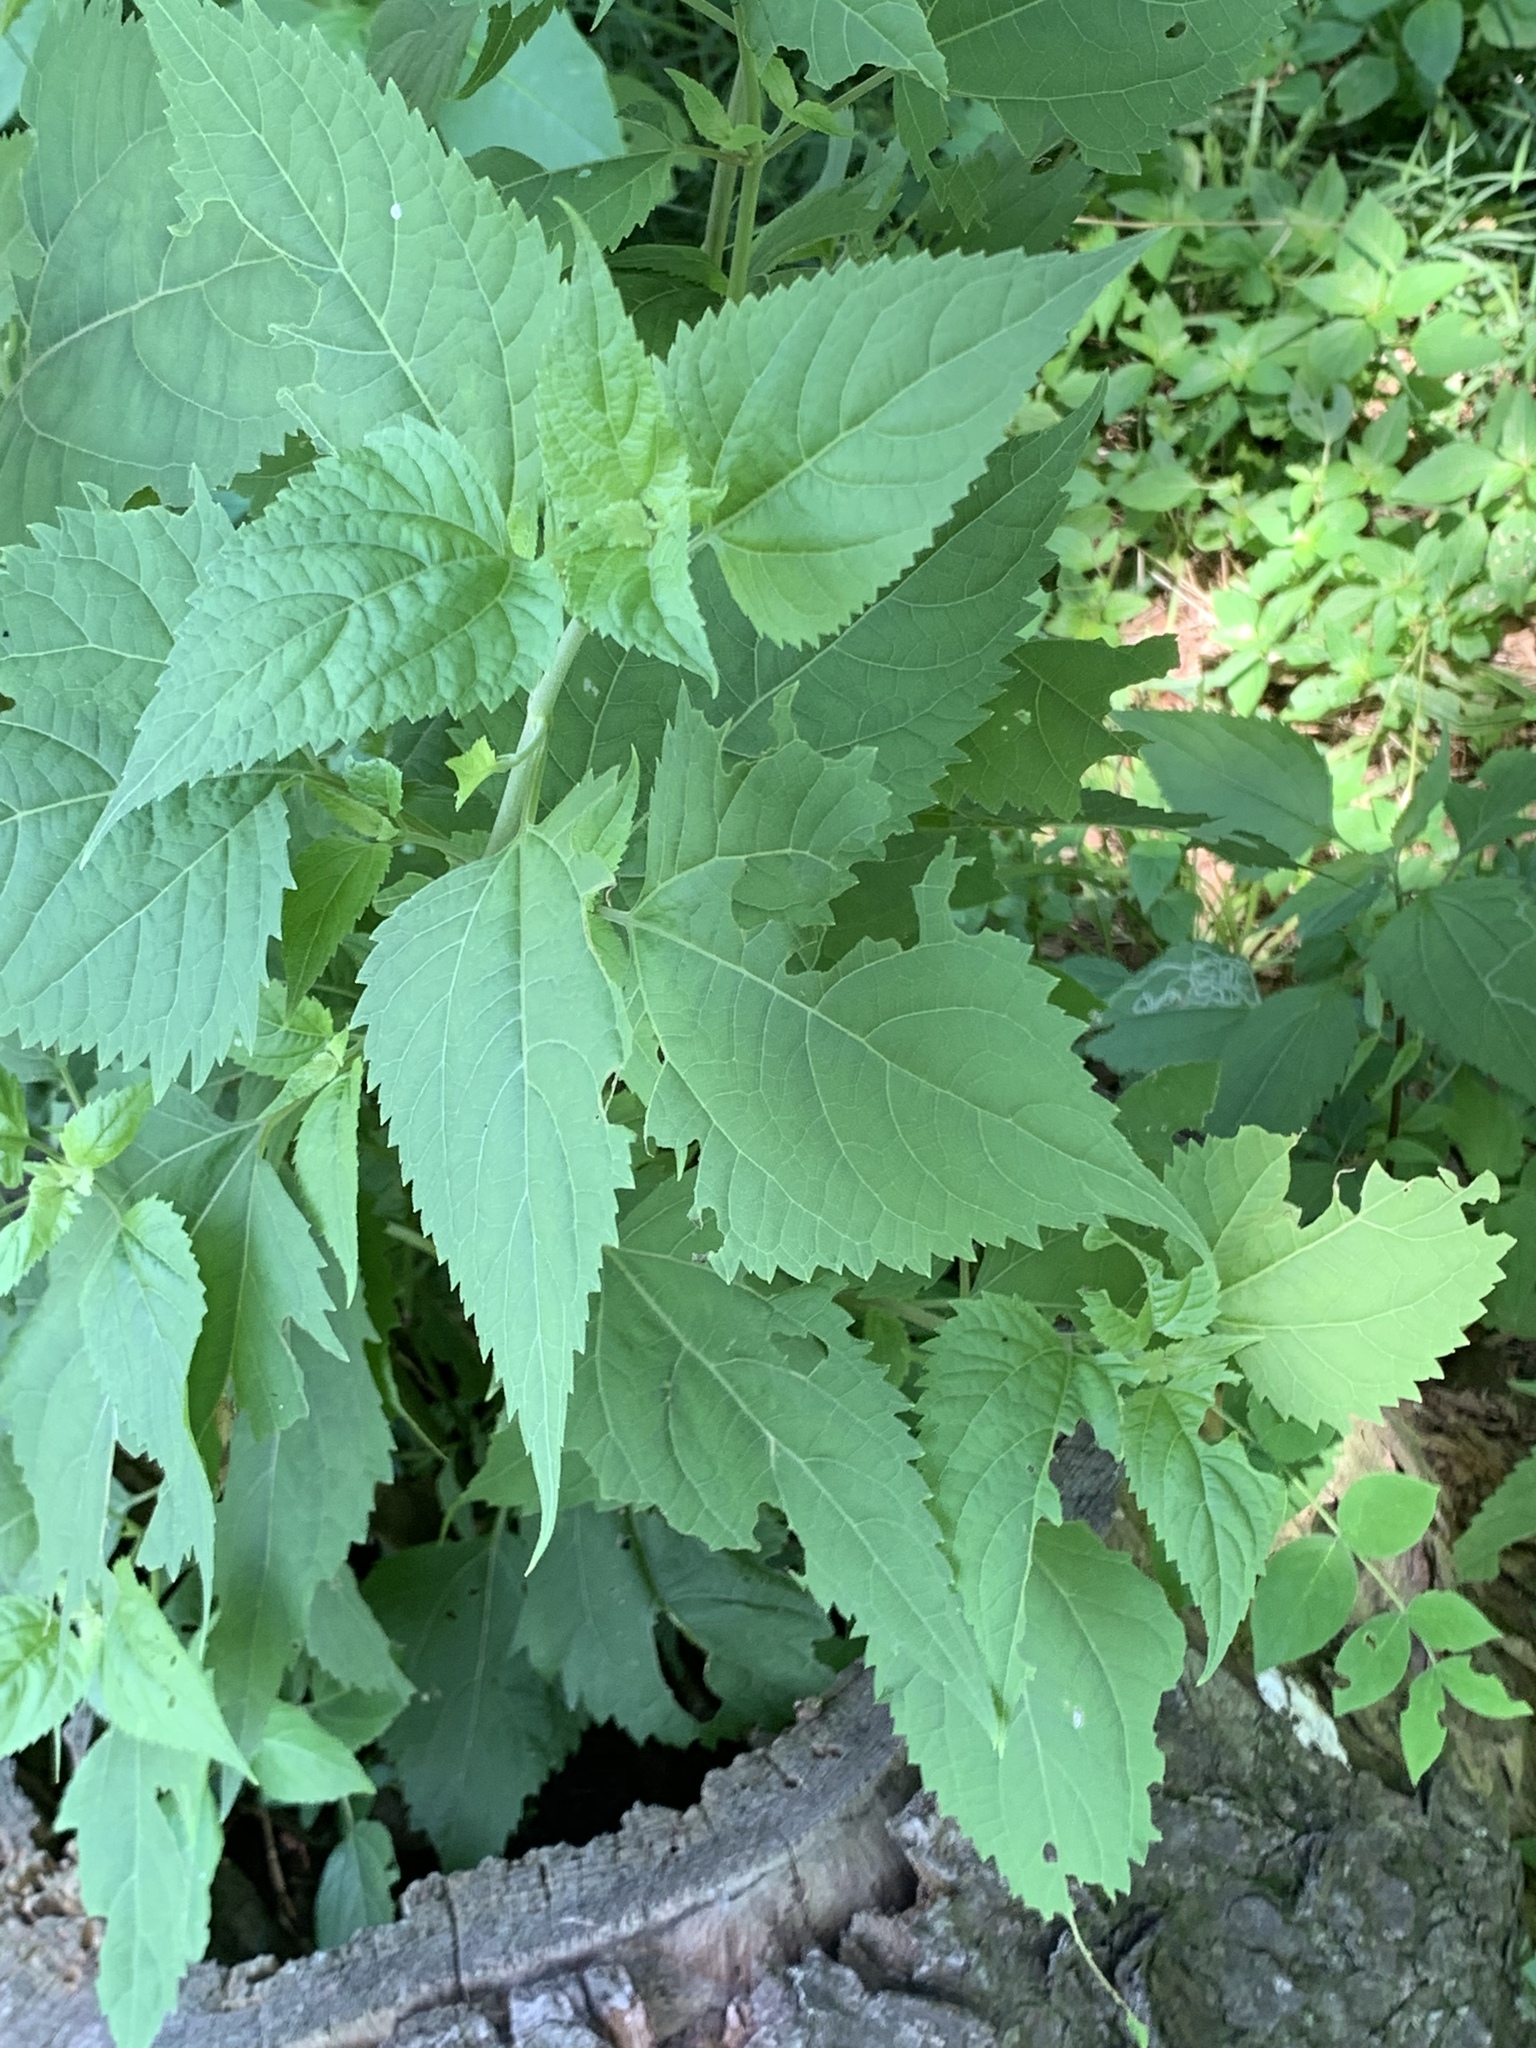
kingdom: Plantae
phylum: Tracheophyta
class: Magnoliopsida
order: Asterales
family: Asteraceae
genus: Ageratina
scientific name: Ageratina altissima
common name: White snakeroot
